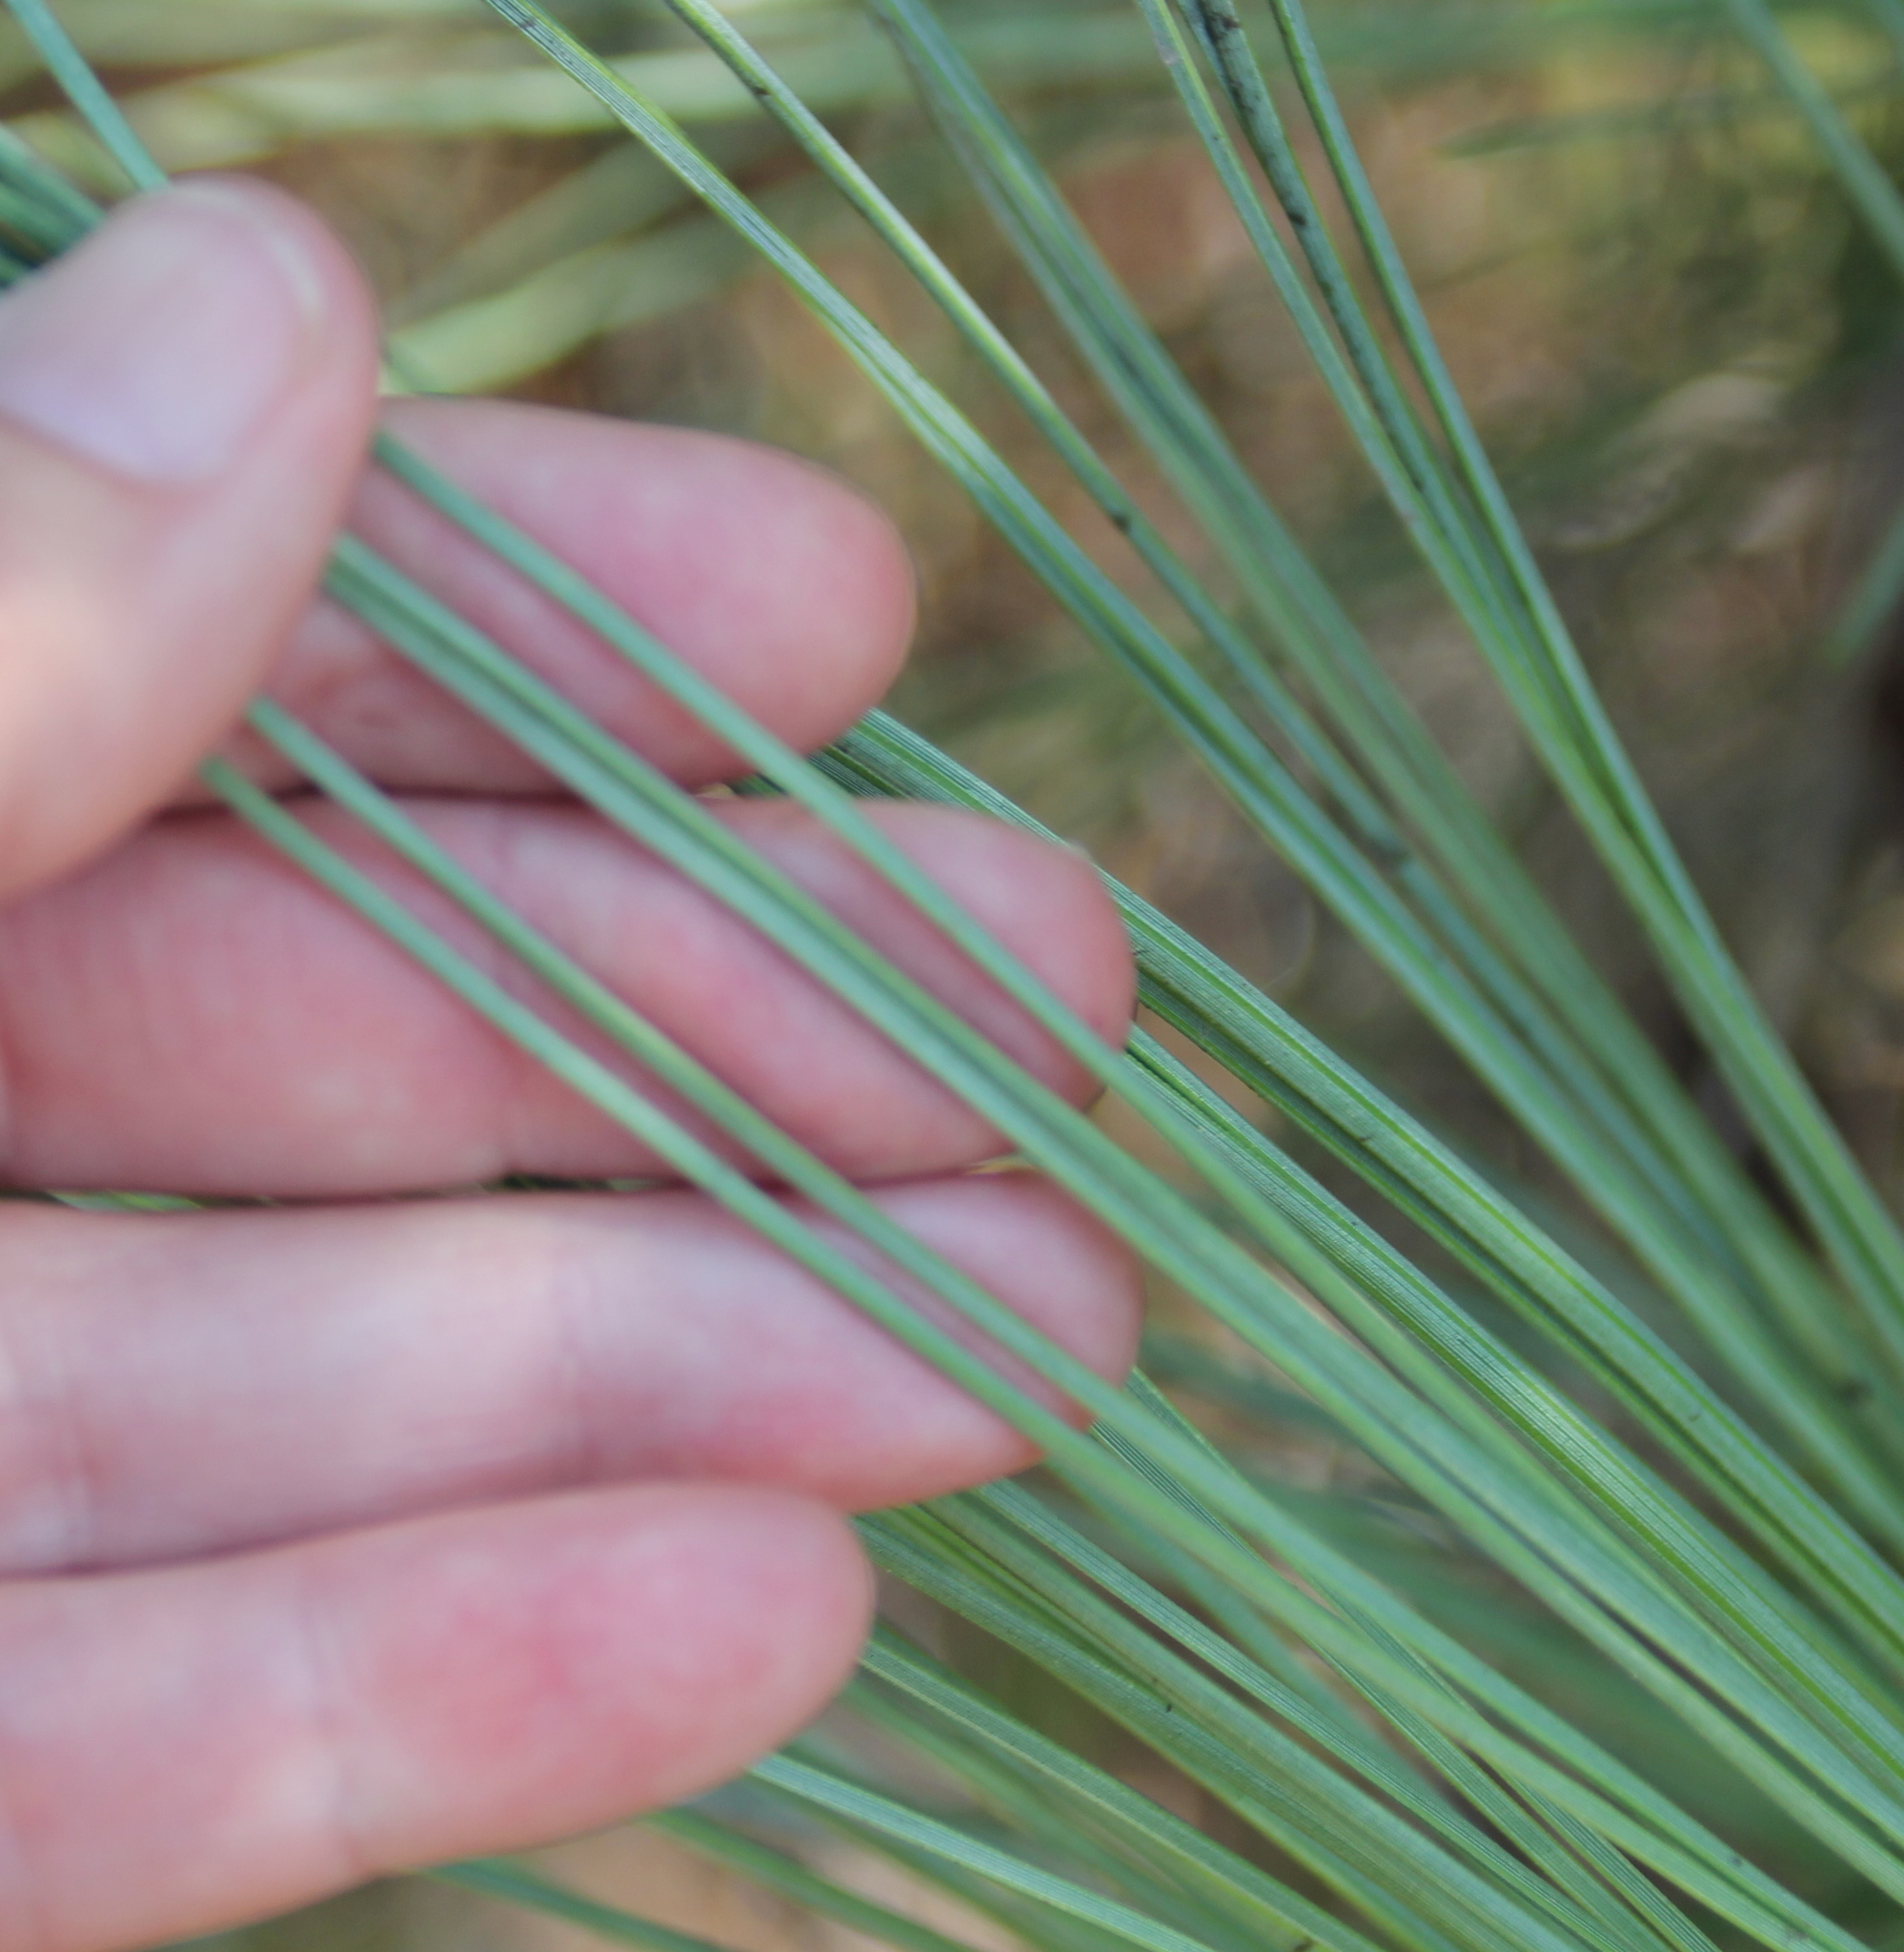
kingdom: Plantae
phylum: Tracheophyta
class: Pinopsida
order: Pinales
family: Pinaceae
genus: Pinus
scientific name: Pinus torreyana
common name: Torrey pine
